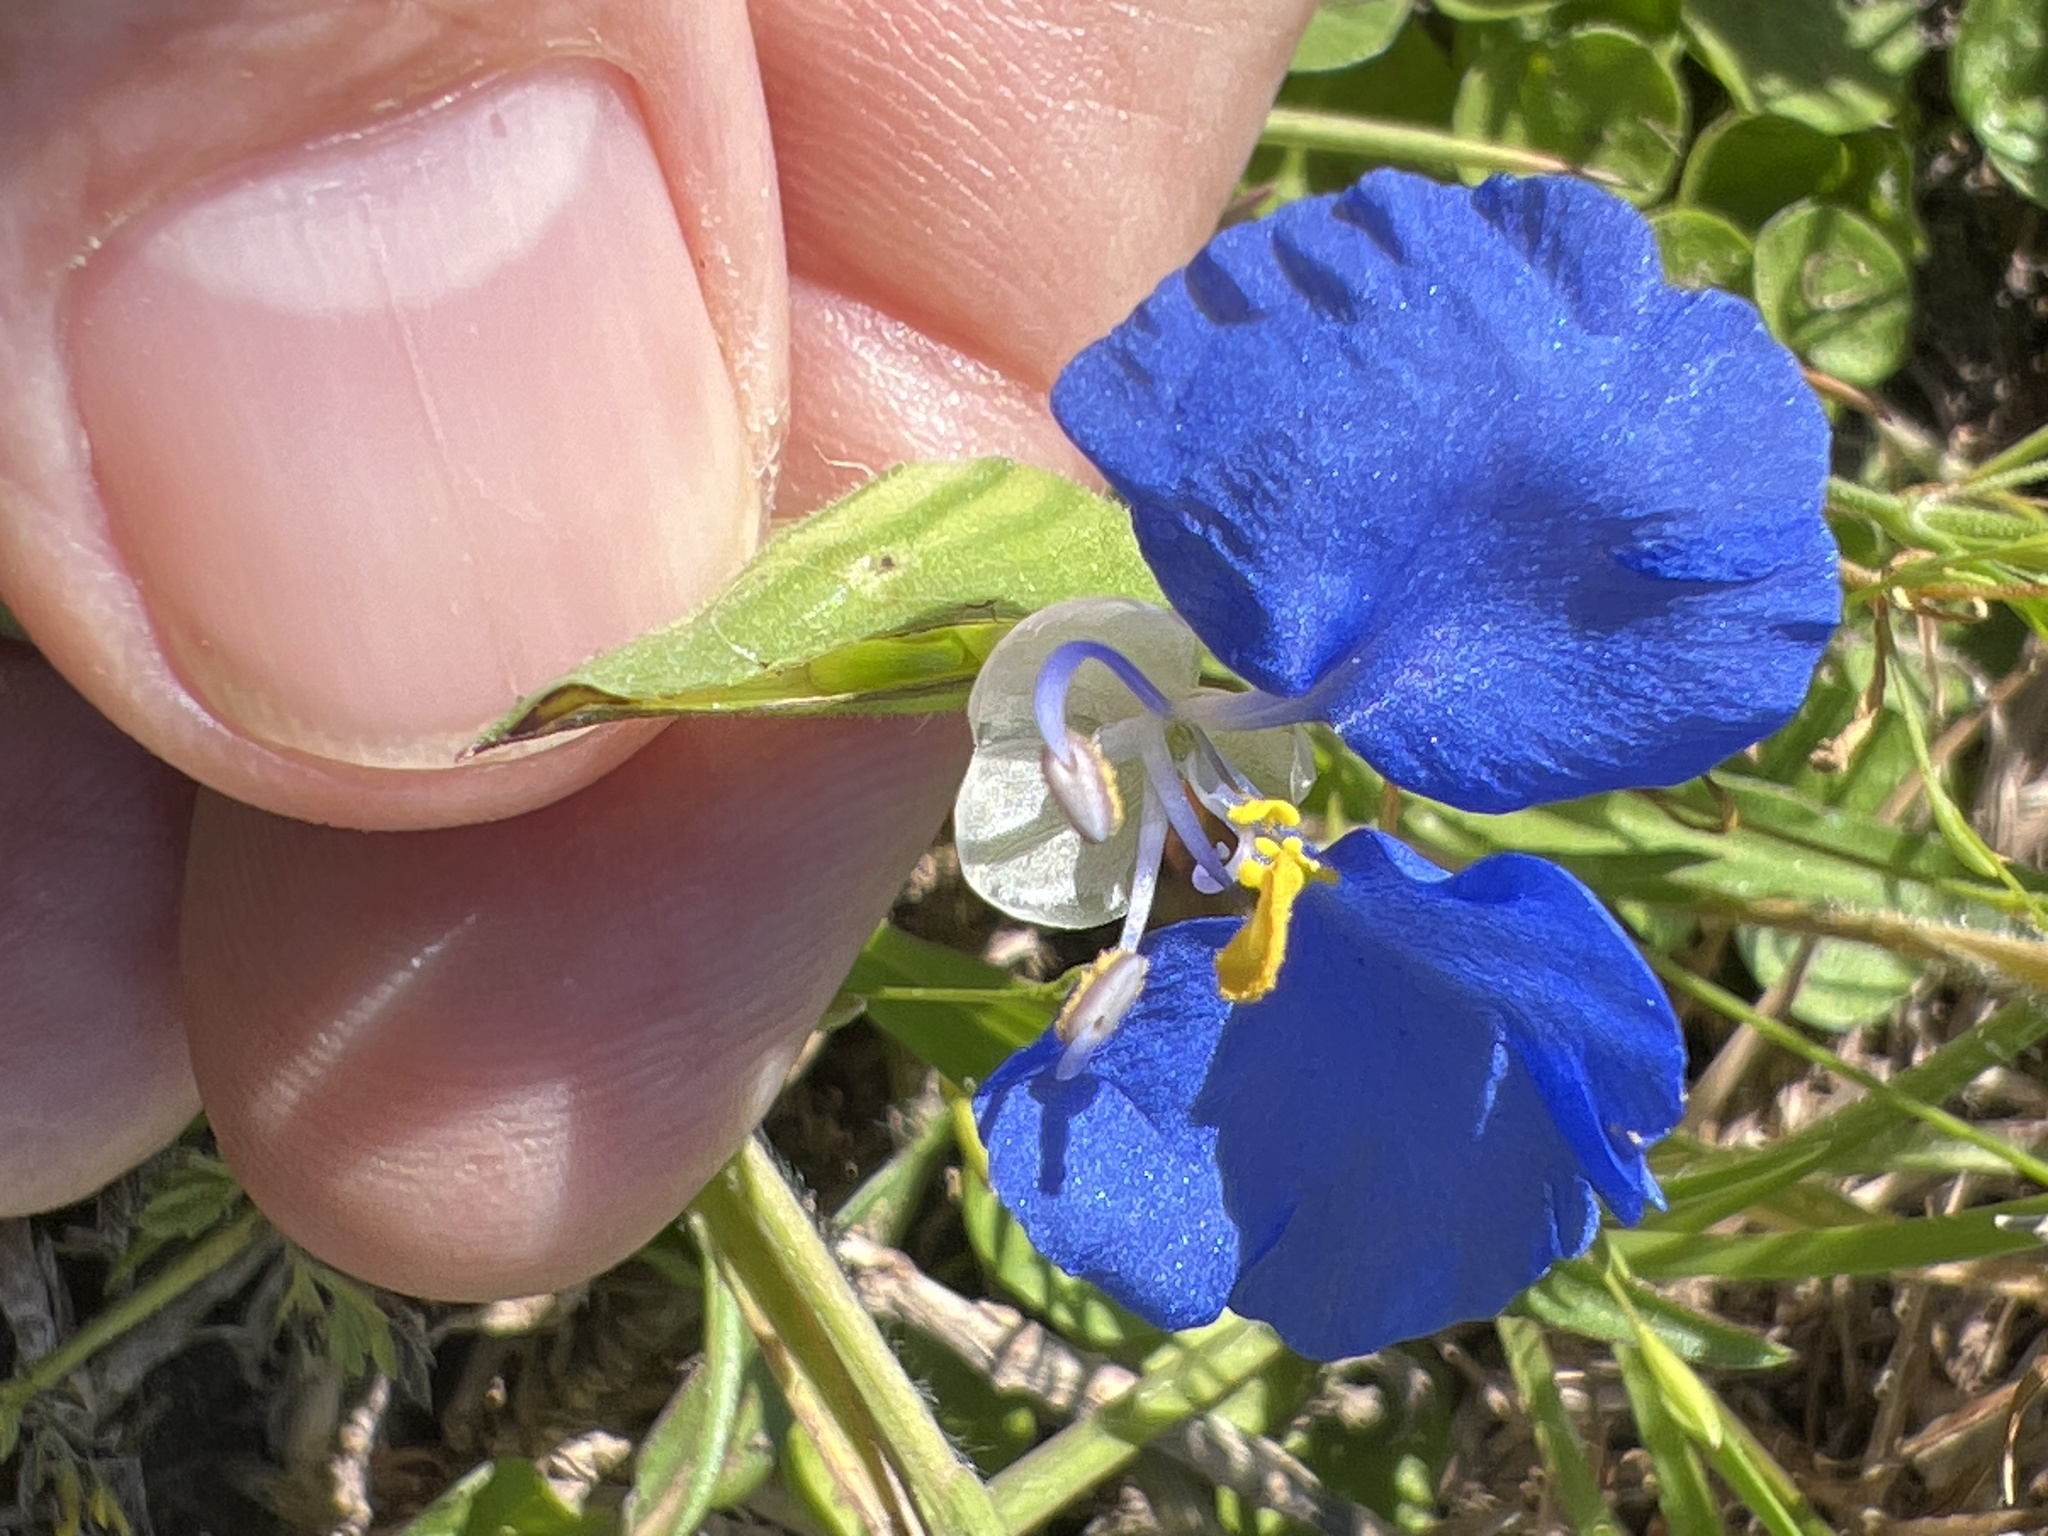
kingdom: Plantae
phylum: Tracheophyta
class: Liliopsida
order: Commelinales
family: Commelinaceae
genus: Commelina
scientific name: Commelina erecta
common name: Blousel blommetjie
